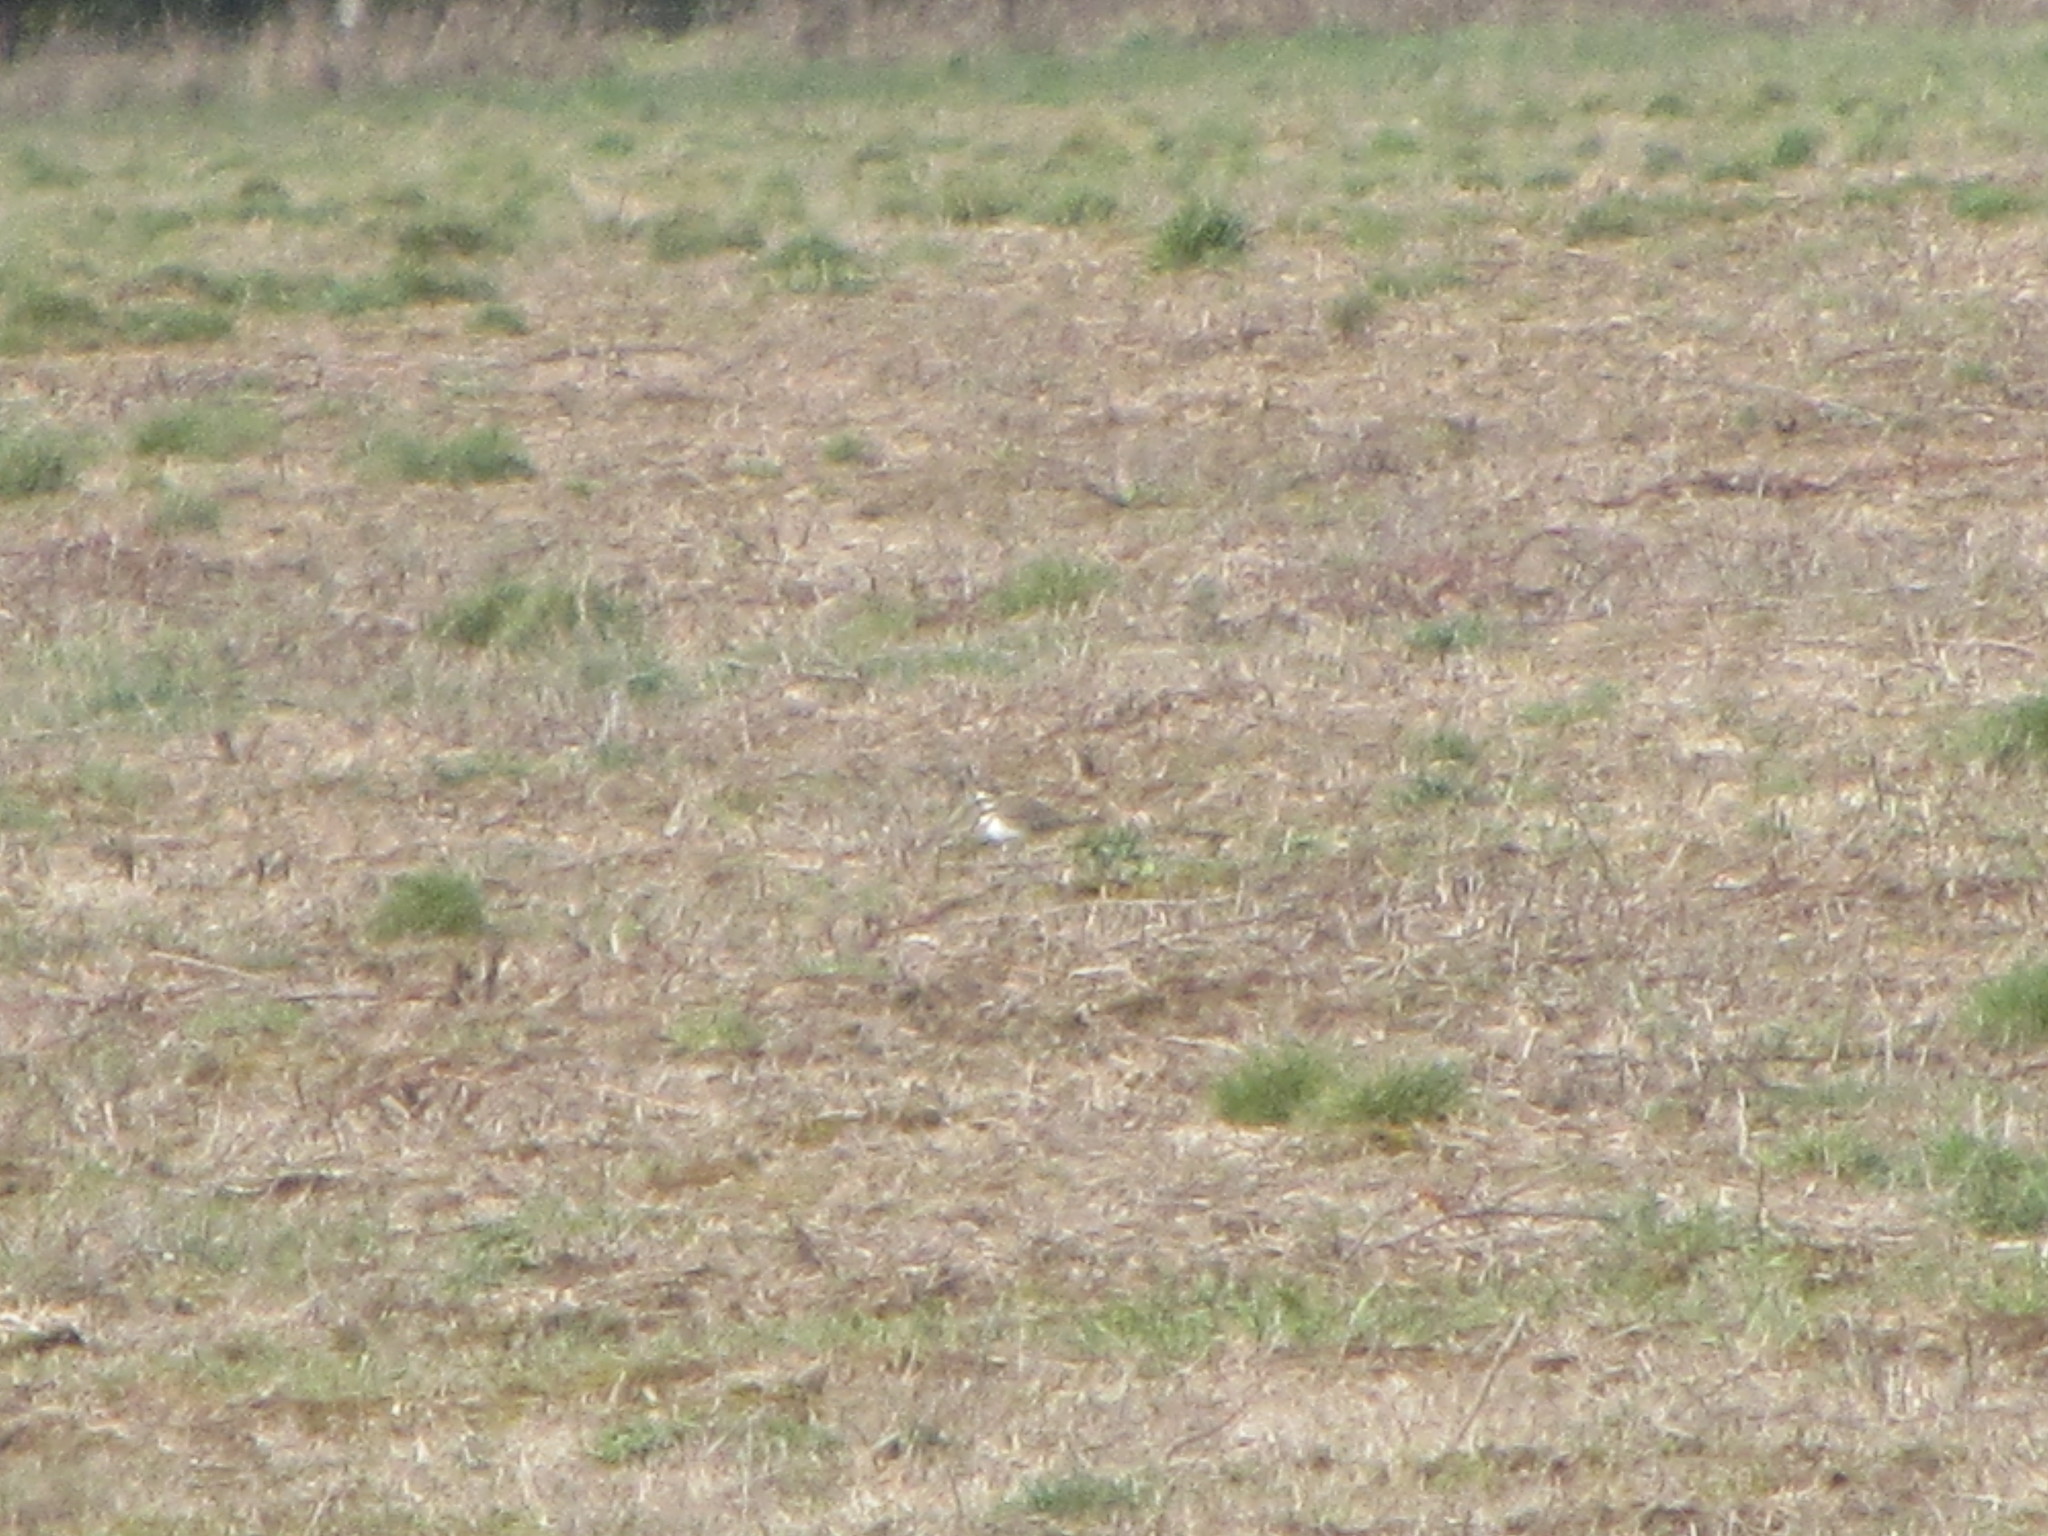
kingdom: Animalia
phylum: Chordata
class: Aves
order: Charadriiformes
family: Charadriidae
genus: Charadrius
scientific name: Charadrius vociferus
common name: Killdeer
